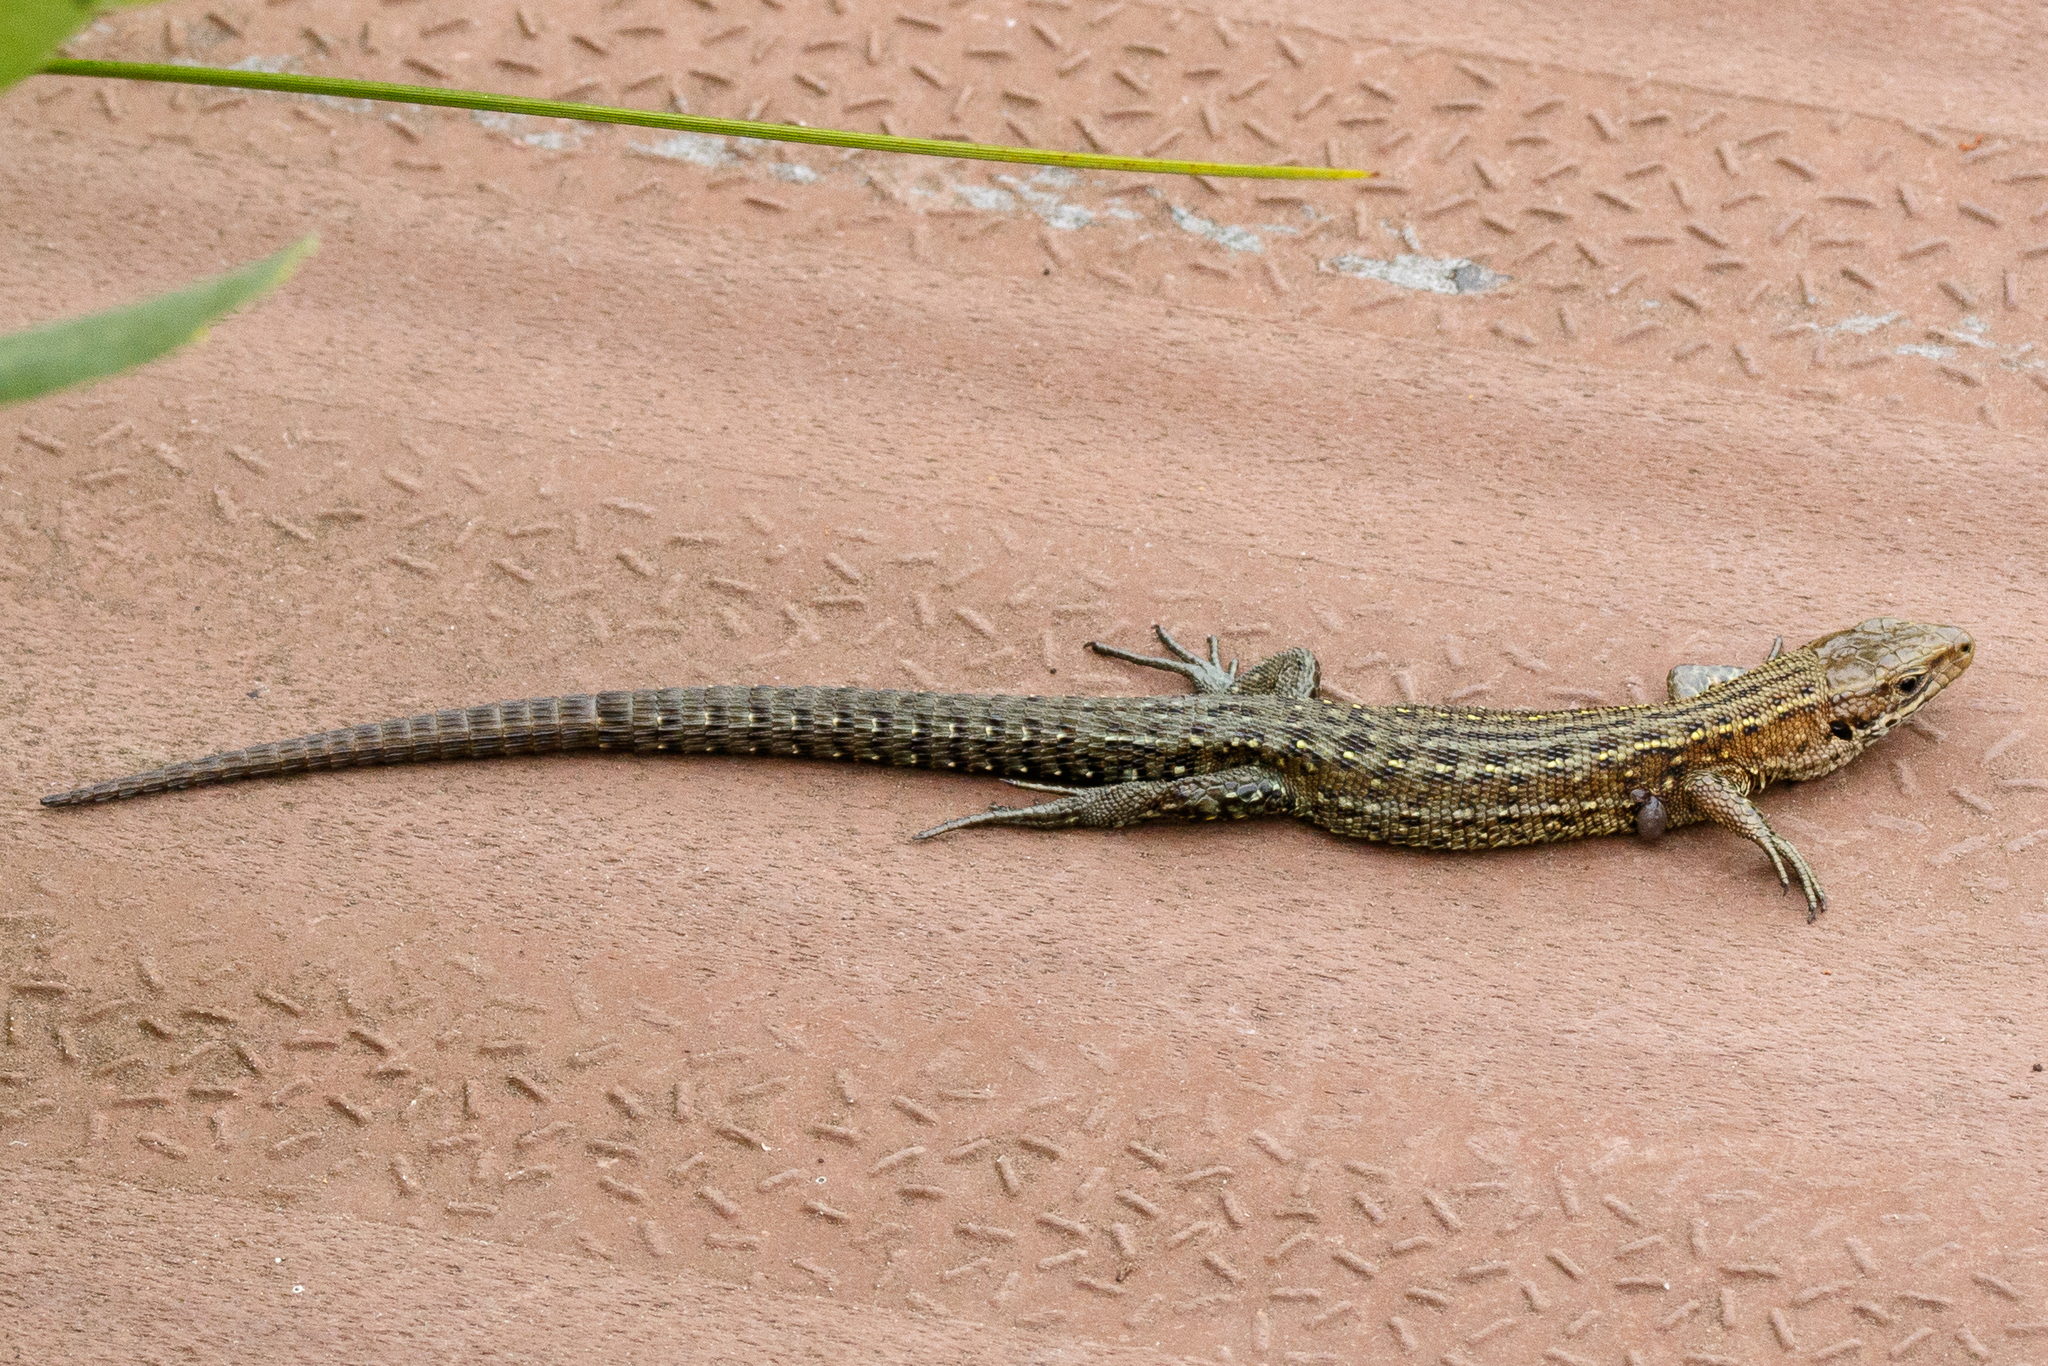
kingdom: Animalia
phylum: Chordata
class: Squamata
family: Lacertidae
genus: Zootoca
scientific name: Zootoca vivipara
